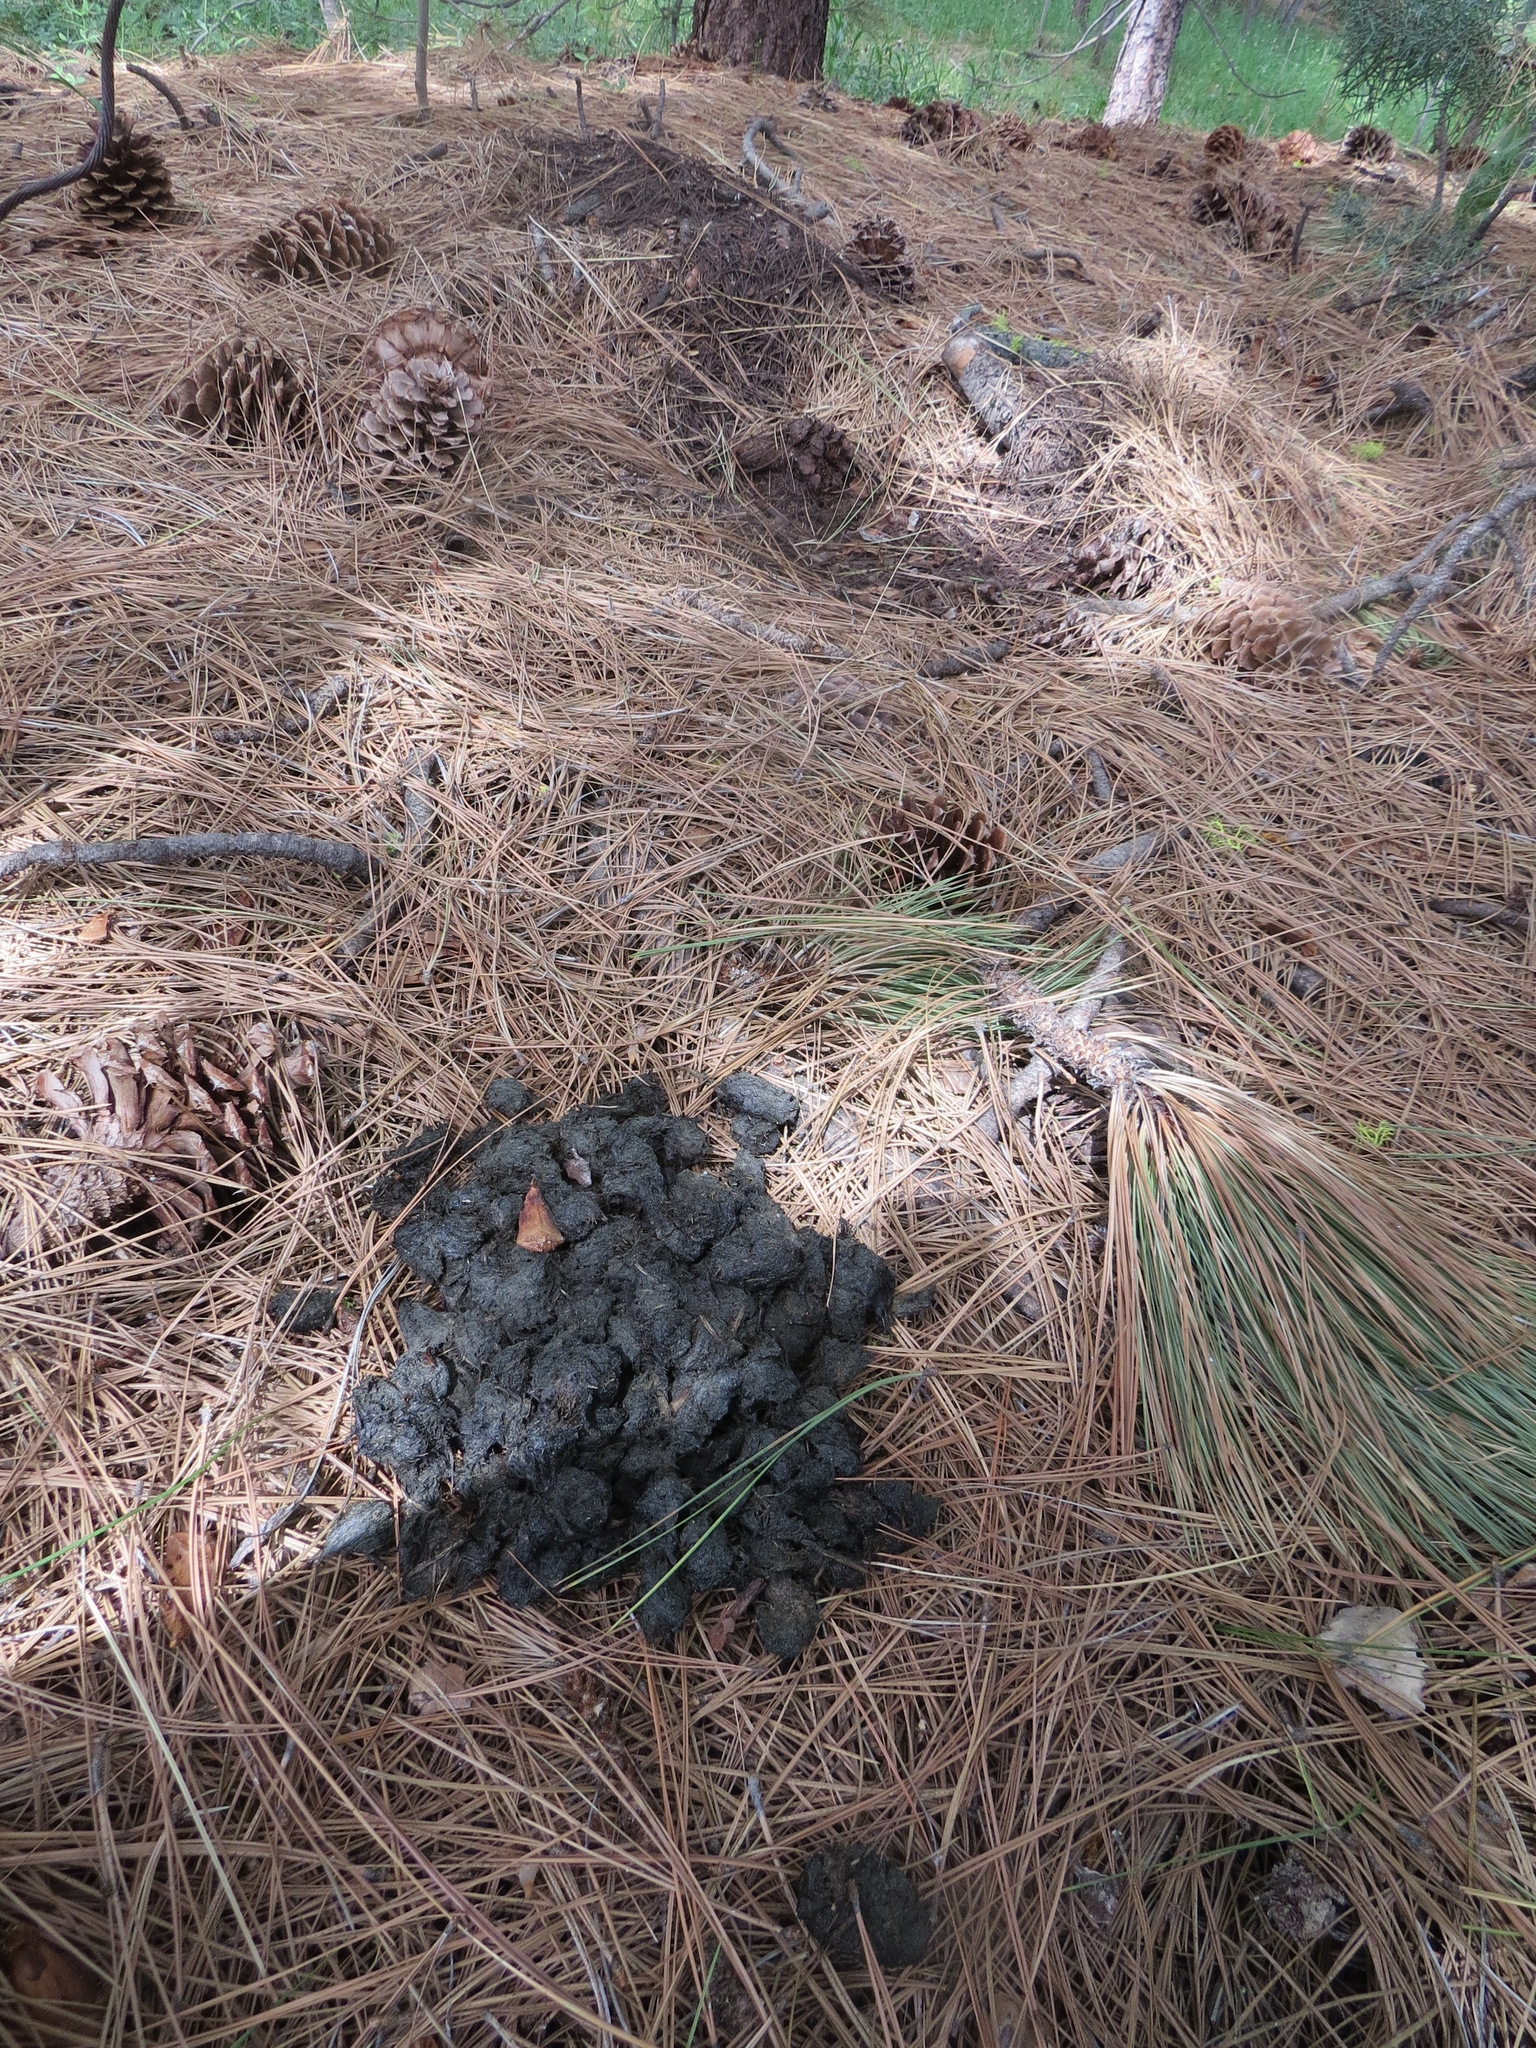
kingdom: Animalia
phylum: Chordata
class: Mammalia
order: Carnivora
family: Ursidae
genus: Ursus
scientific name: Ursus americanus
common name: American black bear
